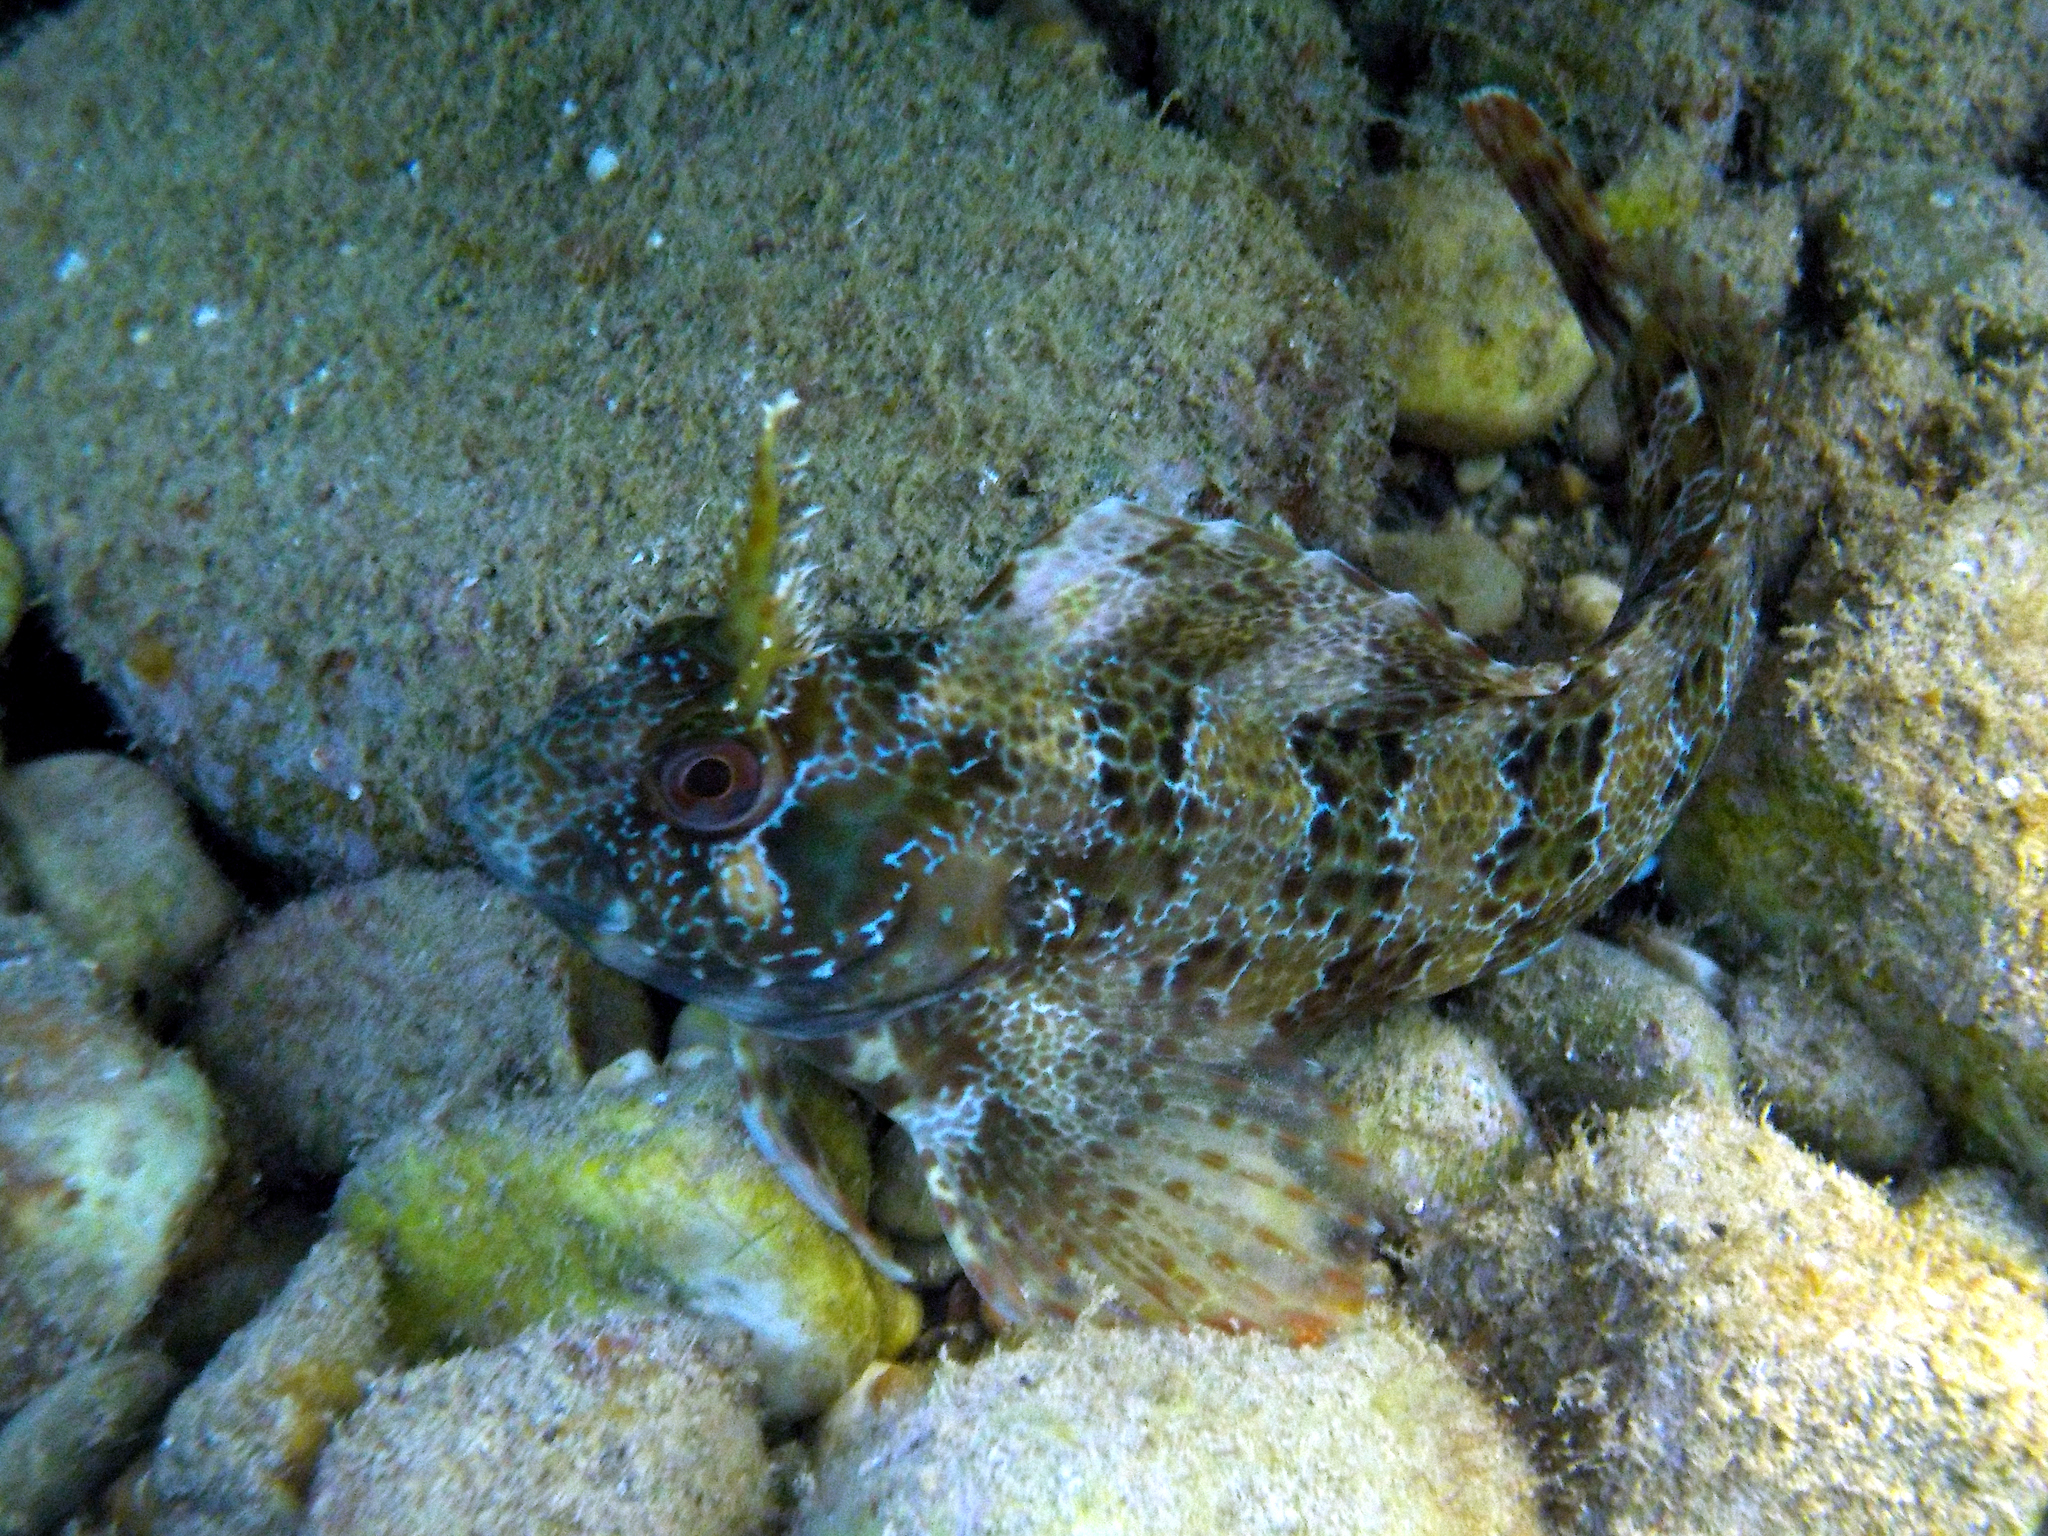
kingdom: Animalia
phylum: Chordata
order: Perciformes
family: Blenniidae
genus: Parablennius
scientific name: Parablennius gattorugine
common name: Tompot blenny
